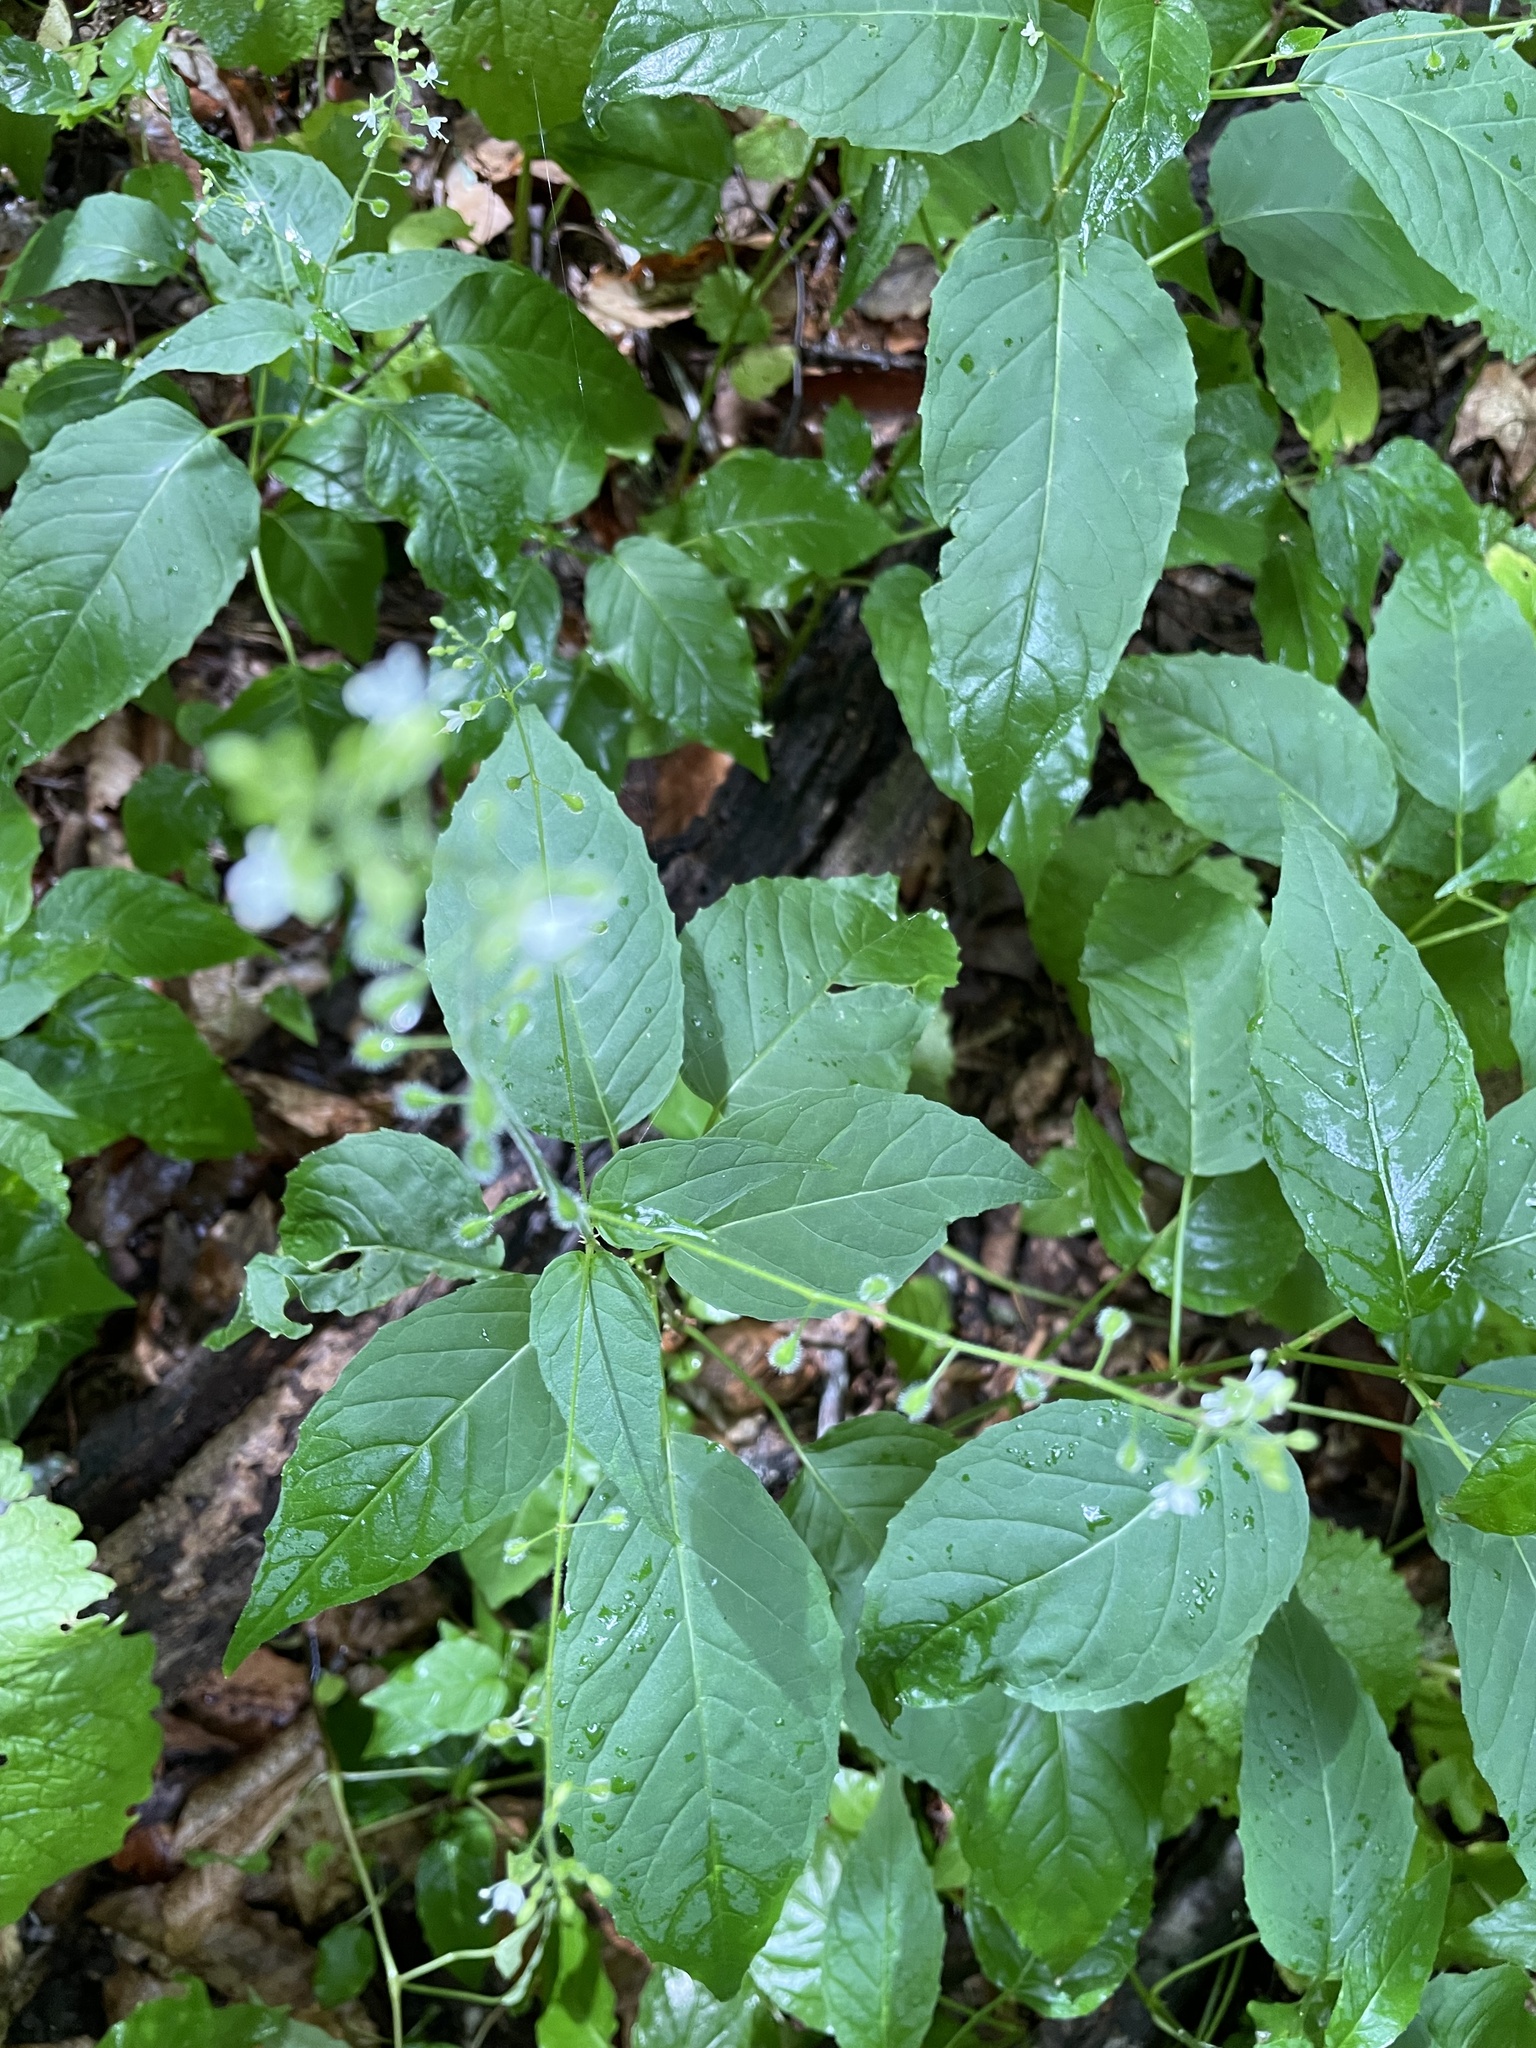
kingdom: Plantae
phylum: Tracheophyta
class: Magnoliopsida
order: Myrtales
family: Onagraceae
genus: Circaea
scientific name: Circaea canadensis
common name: Broad-leaved enchanter's nightshade
